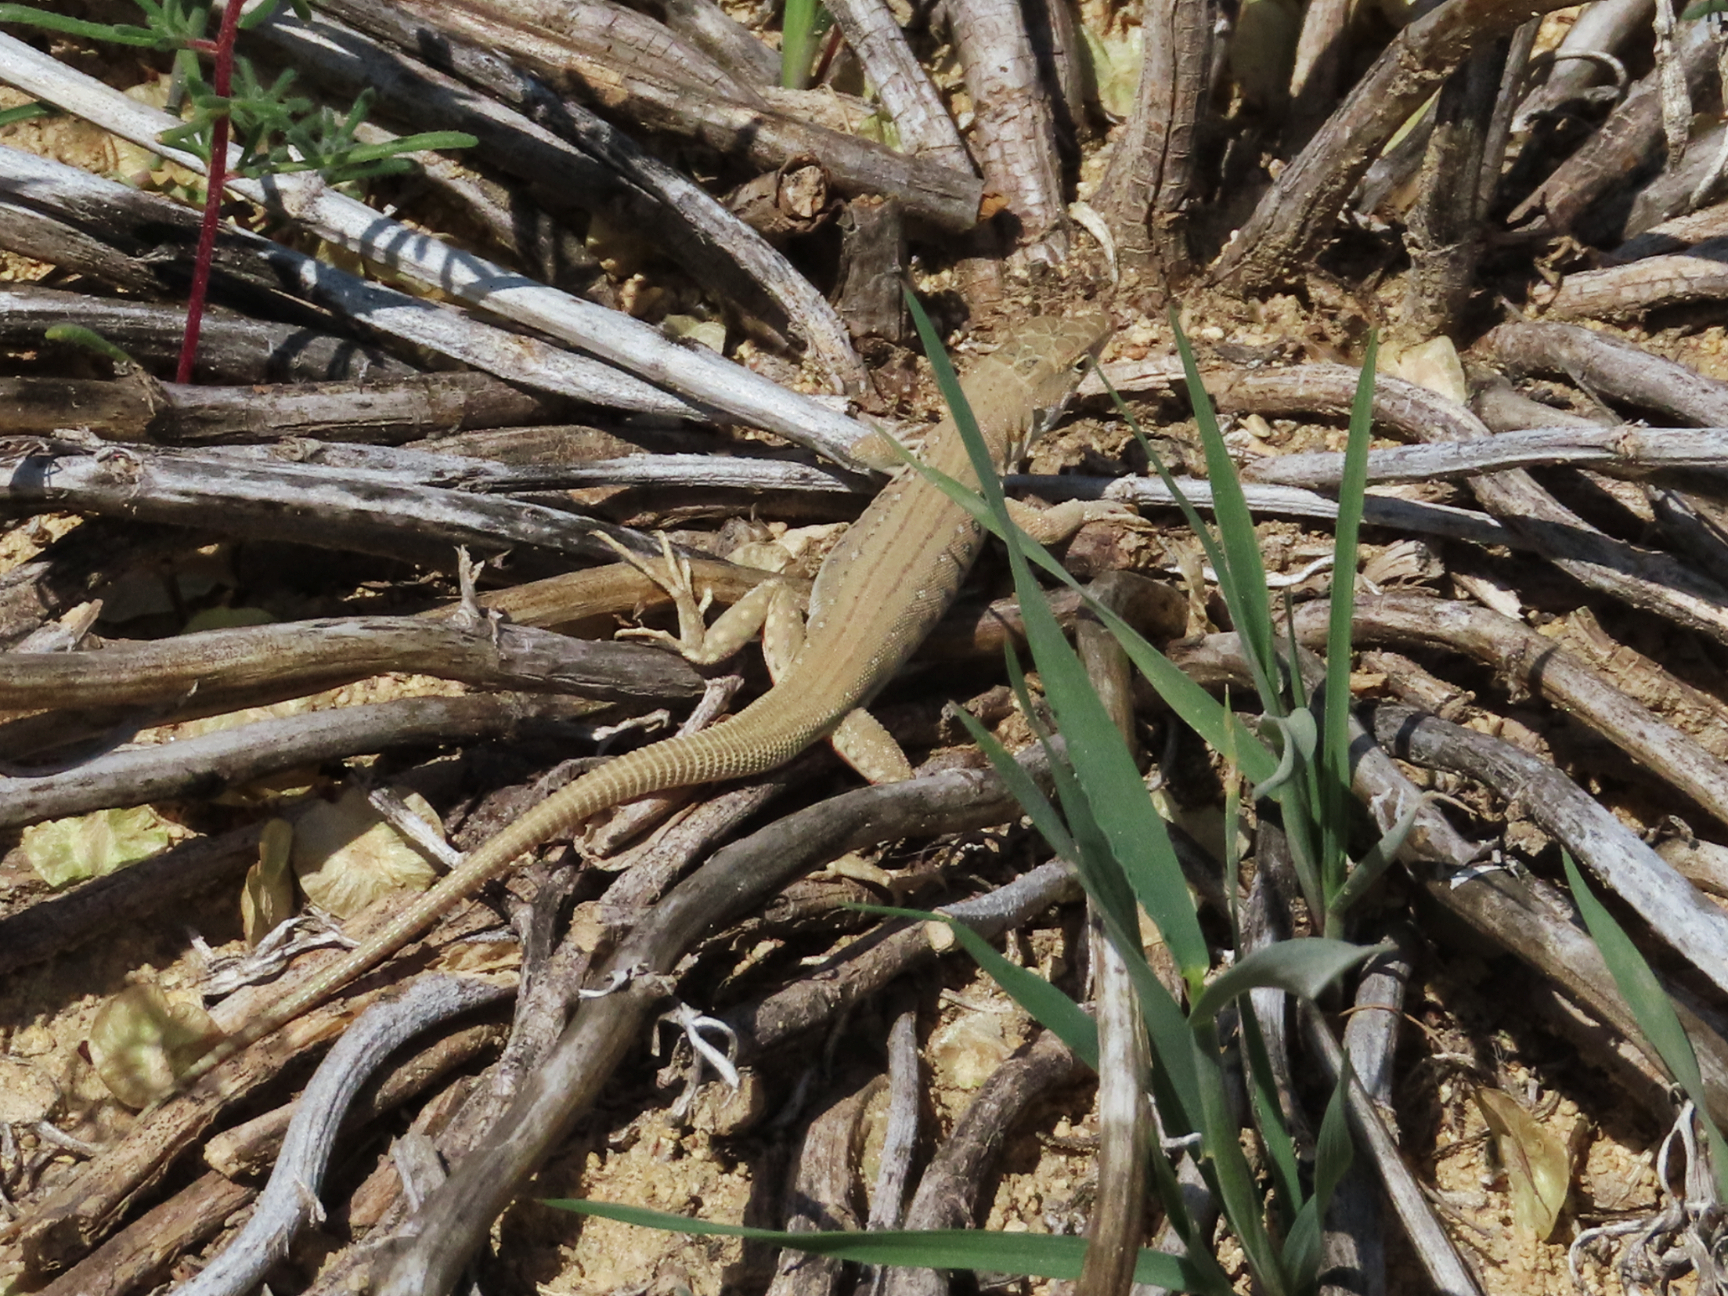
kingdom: Animalia
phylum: Chordata
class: Squamata
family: Lacertidae
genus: Eremias
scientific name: Eremias velox
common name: Central asian racerunner
